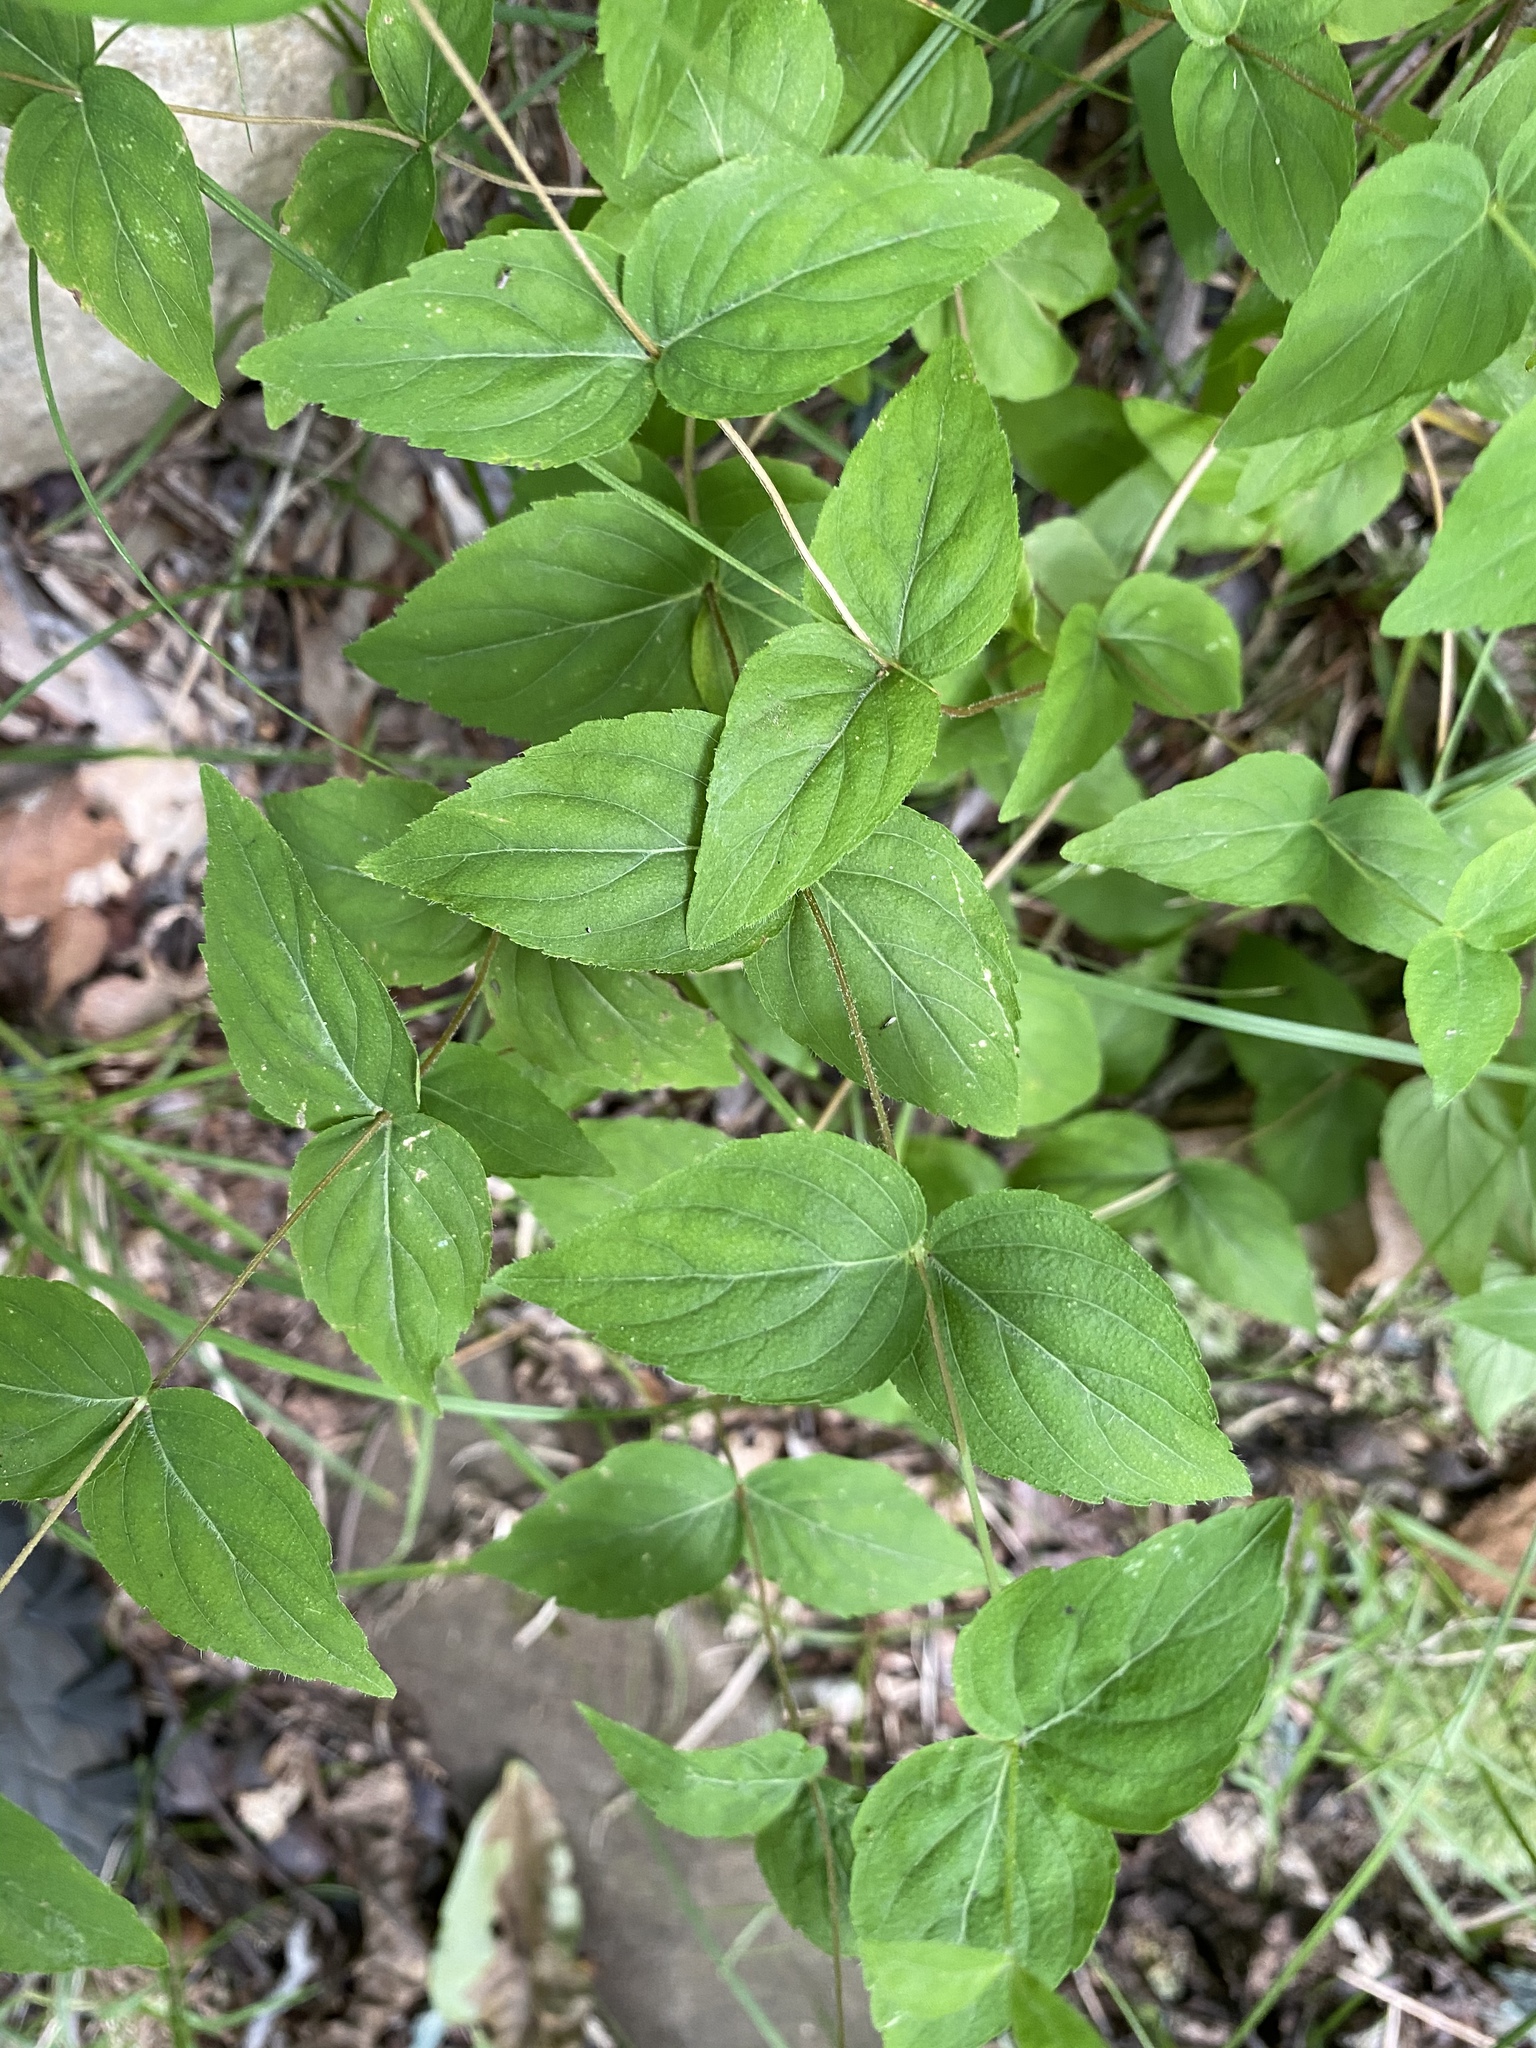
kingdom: Plantae
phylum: Tracheophyta
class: Magnoliopsida
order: Lamiales
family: Lamiaceae
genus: Cunila
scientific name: Cunila origanoides
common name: American dittany
